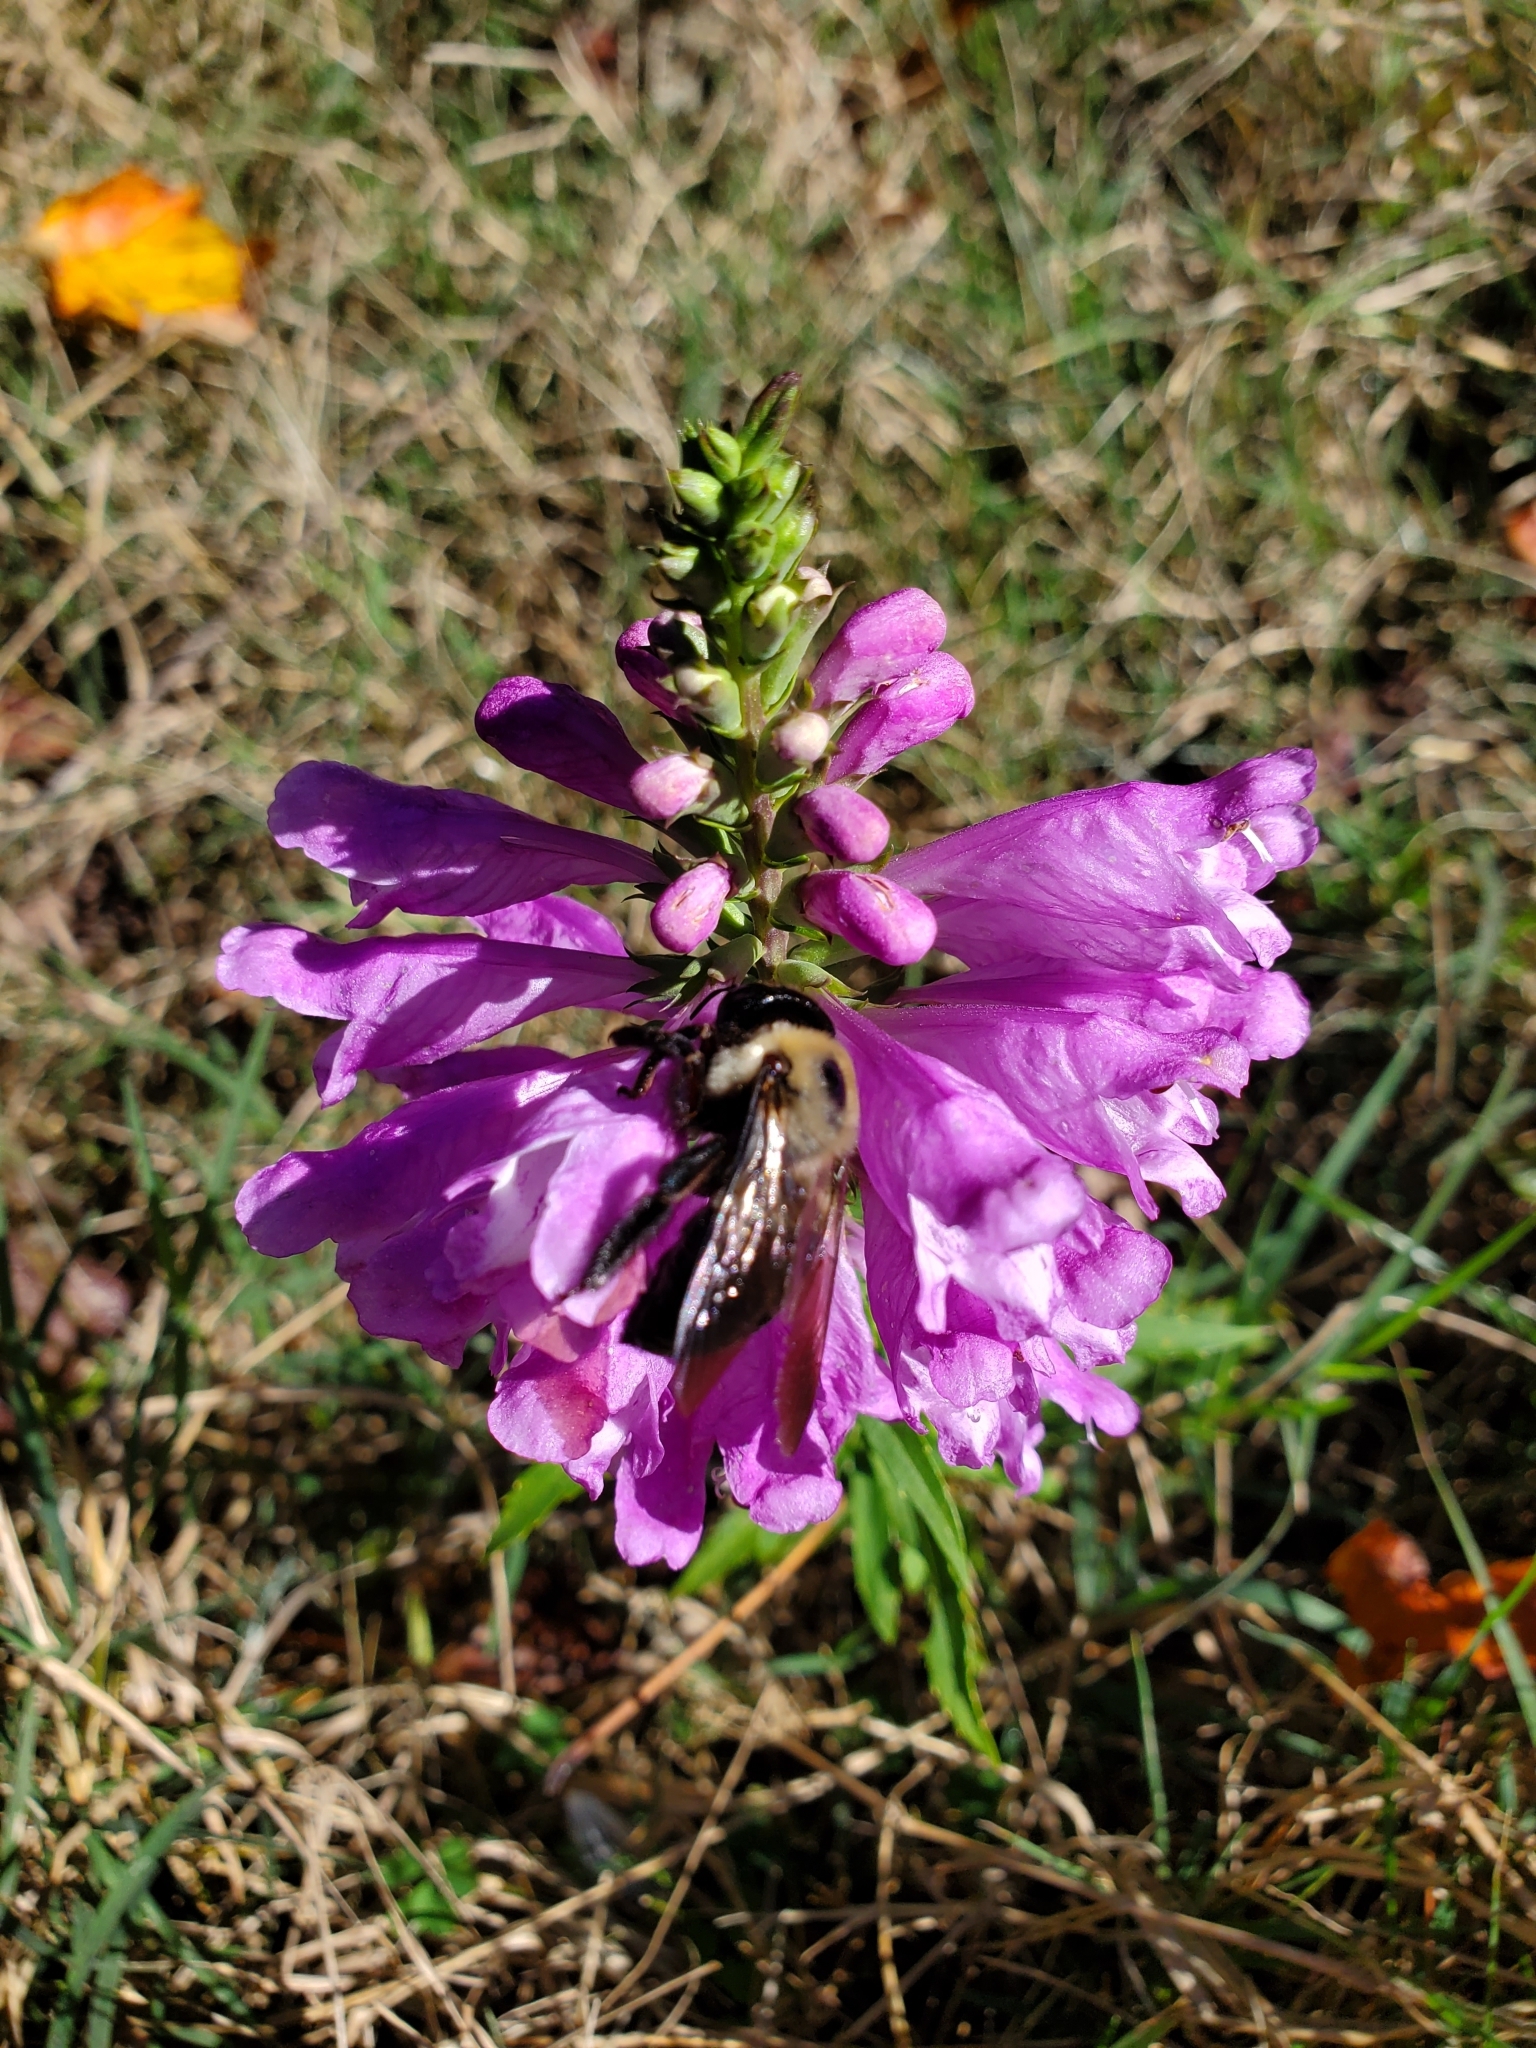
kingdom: Animalia
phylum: Arthropoda
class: Insecta
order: Hymenoptera
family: Apidae
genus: Xylocopa
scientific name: Xylocopa virginica
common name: Carpenter bee
